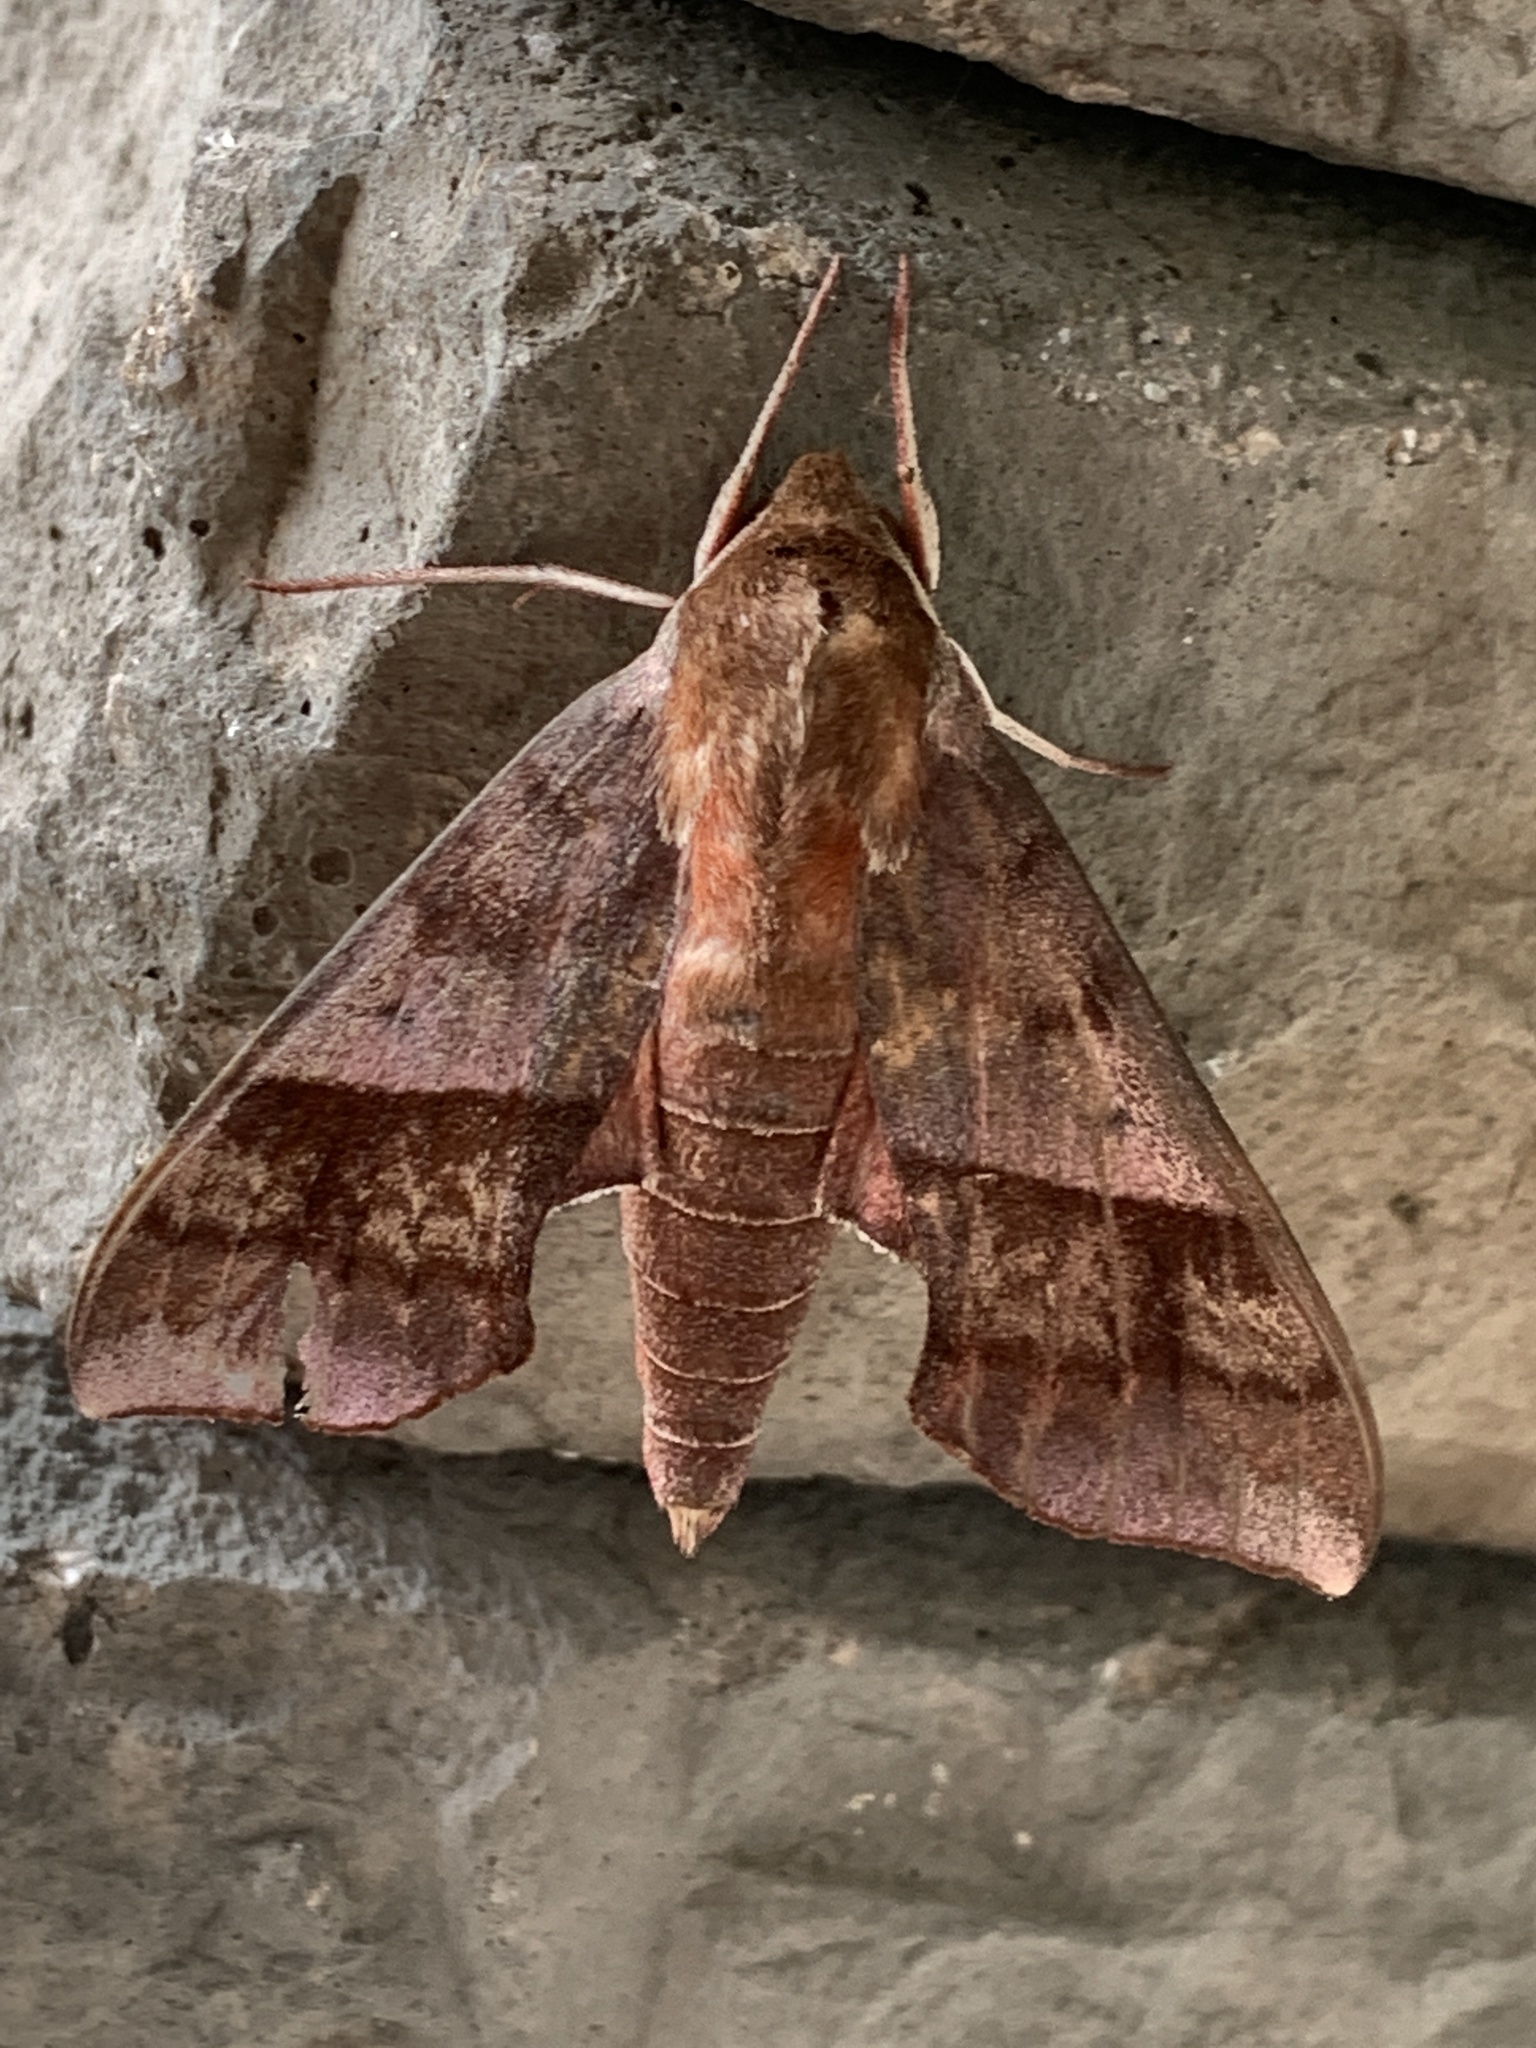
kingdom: Animalia
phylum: Arthropoda
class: Insecta
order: Lepidoptera
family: Sphingidae
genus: Darapsa
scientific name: Darapsa choerilus
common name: Azalea sphinx
